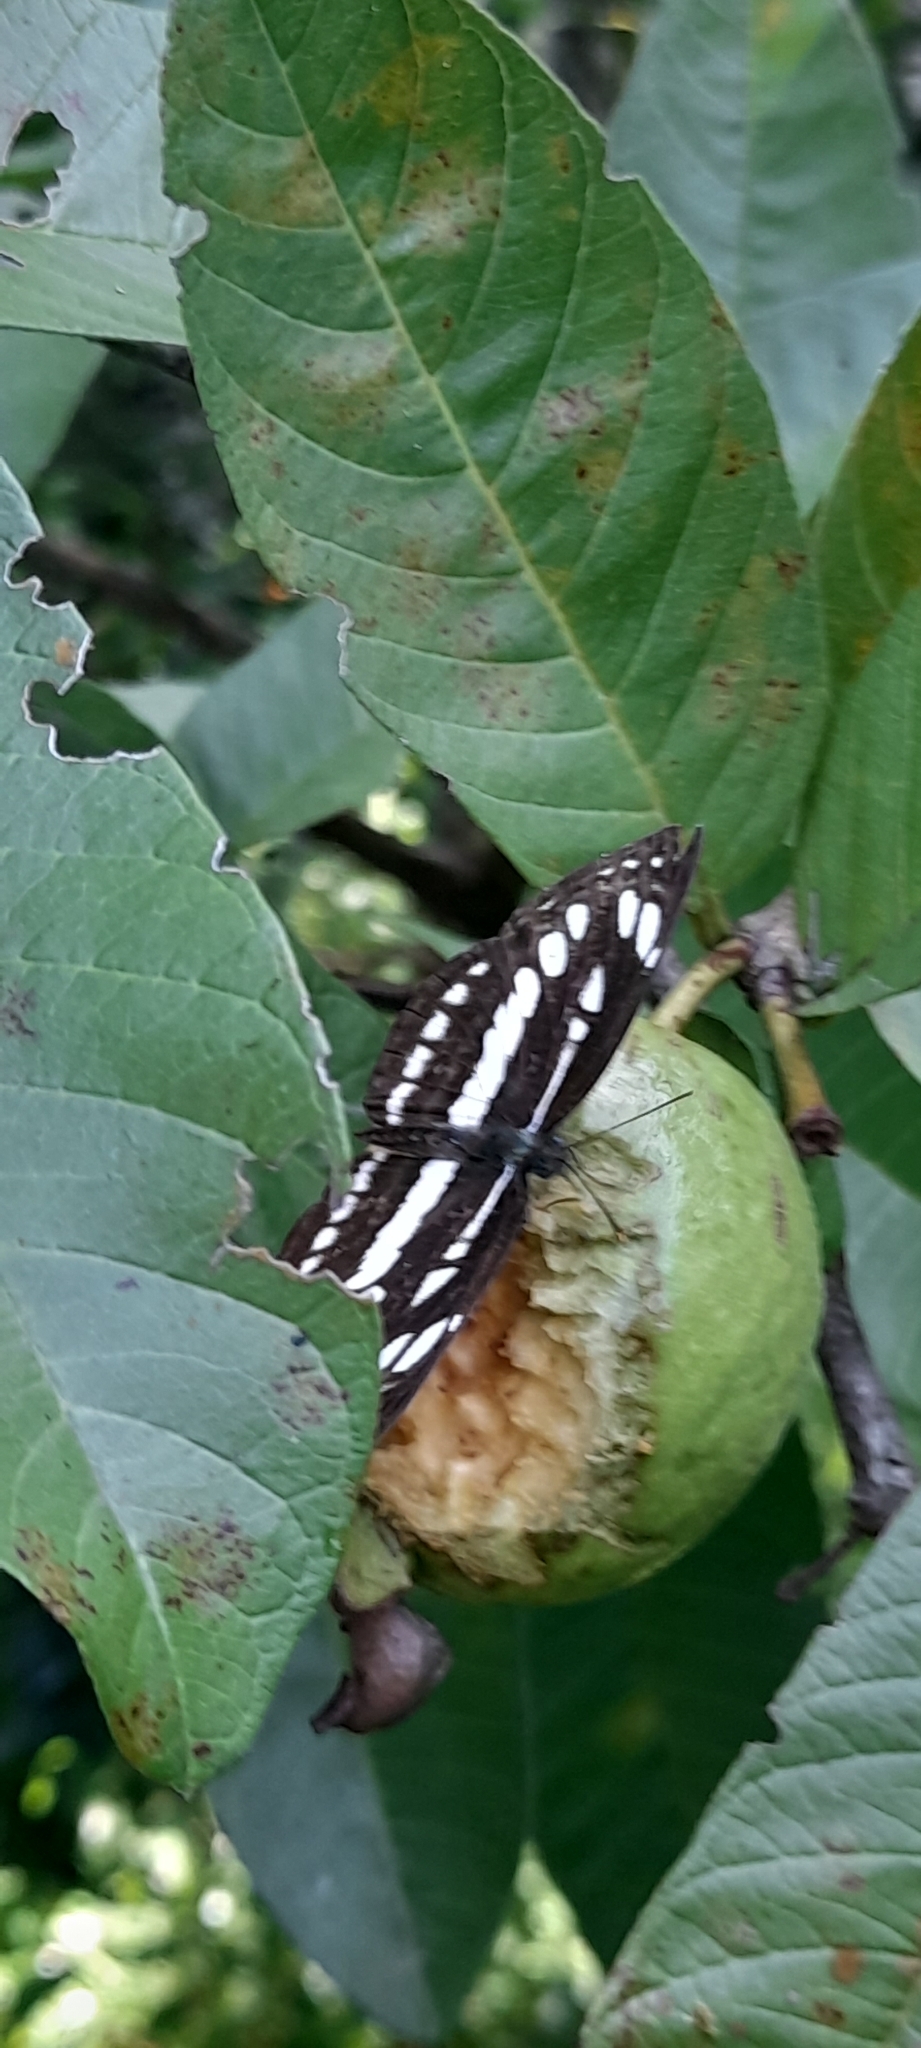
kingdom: Animalia
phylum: Arthropoda
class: Insecta
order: Lepidoptera
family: Nymphalidae
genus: Neptis
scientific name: Neptis hylas
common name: Common sailer
